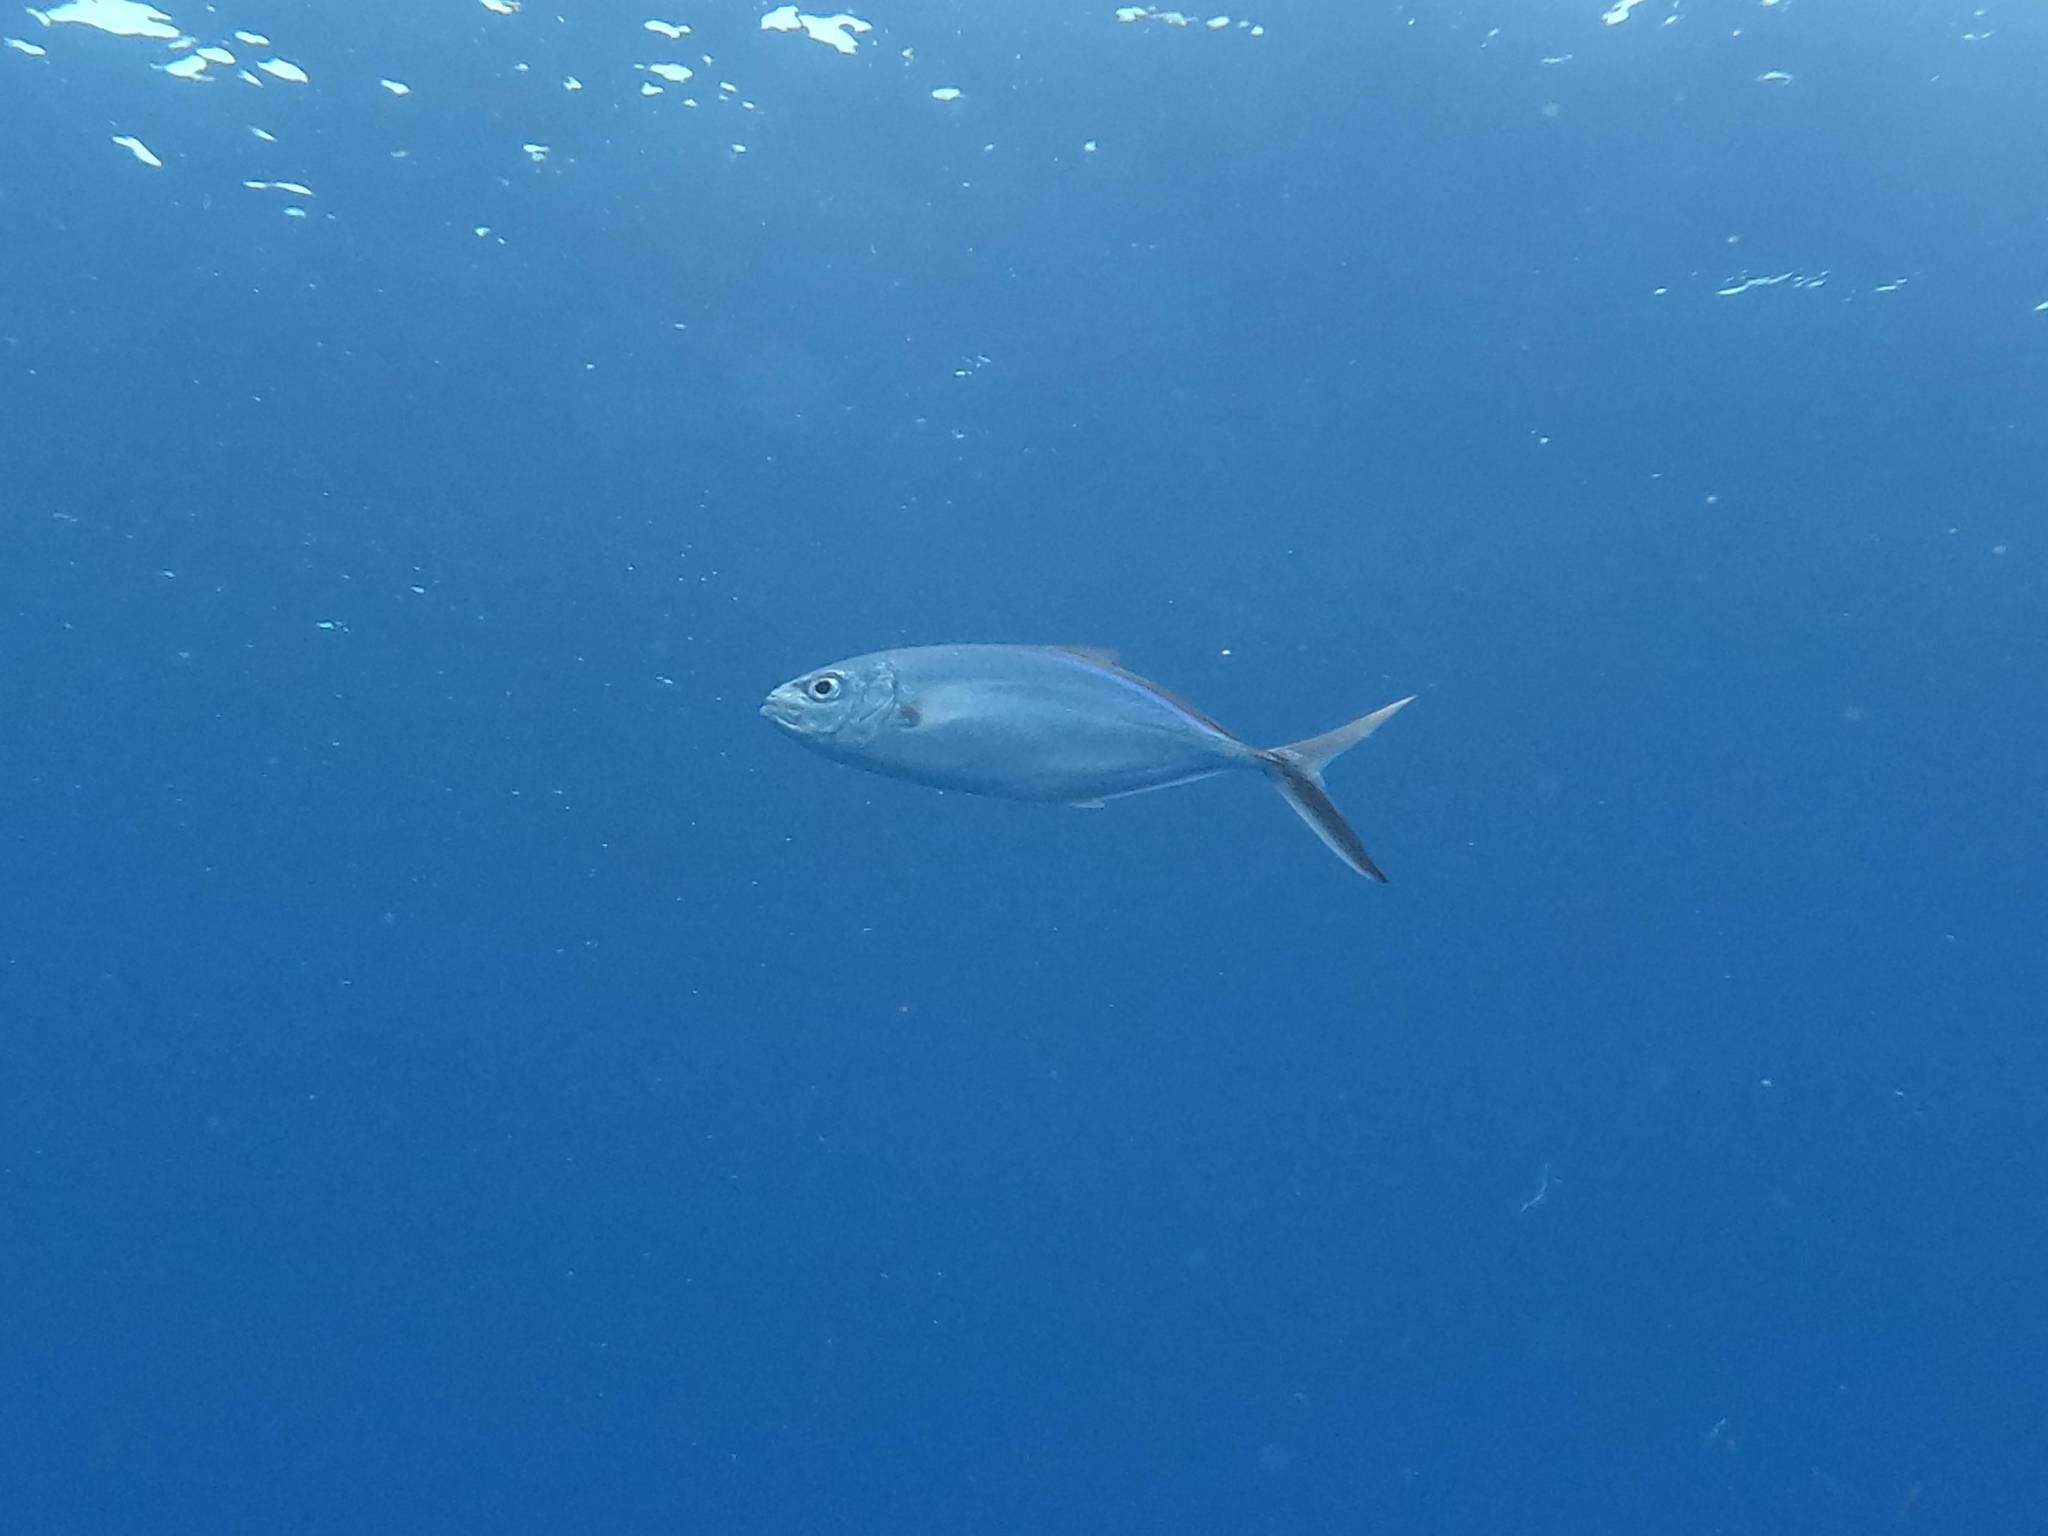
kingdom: Animalia
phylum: Chordata
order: Perciformes
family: Carangidae
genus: Caranx
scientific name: Caranx ruber
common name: Bar jack
